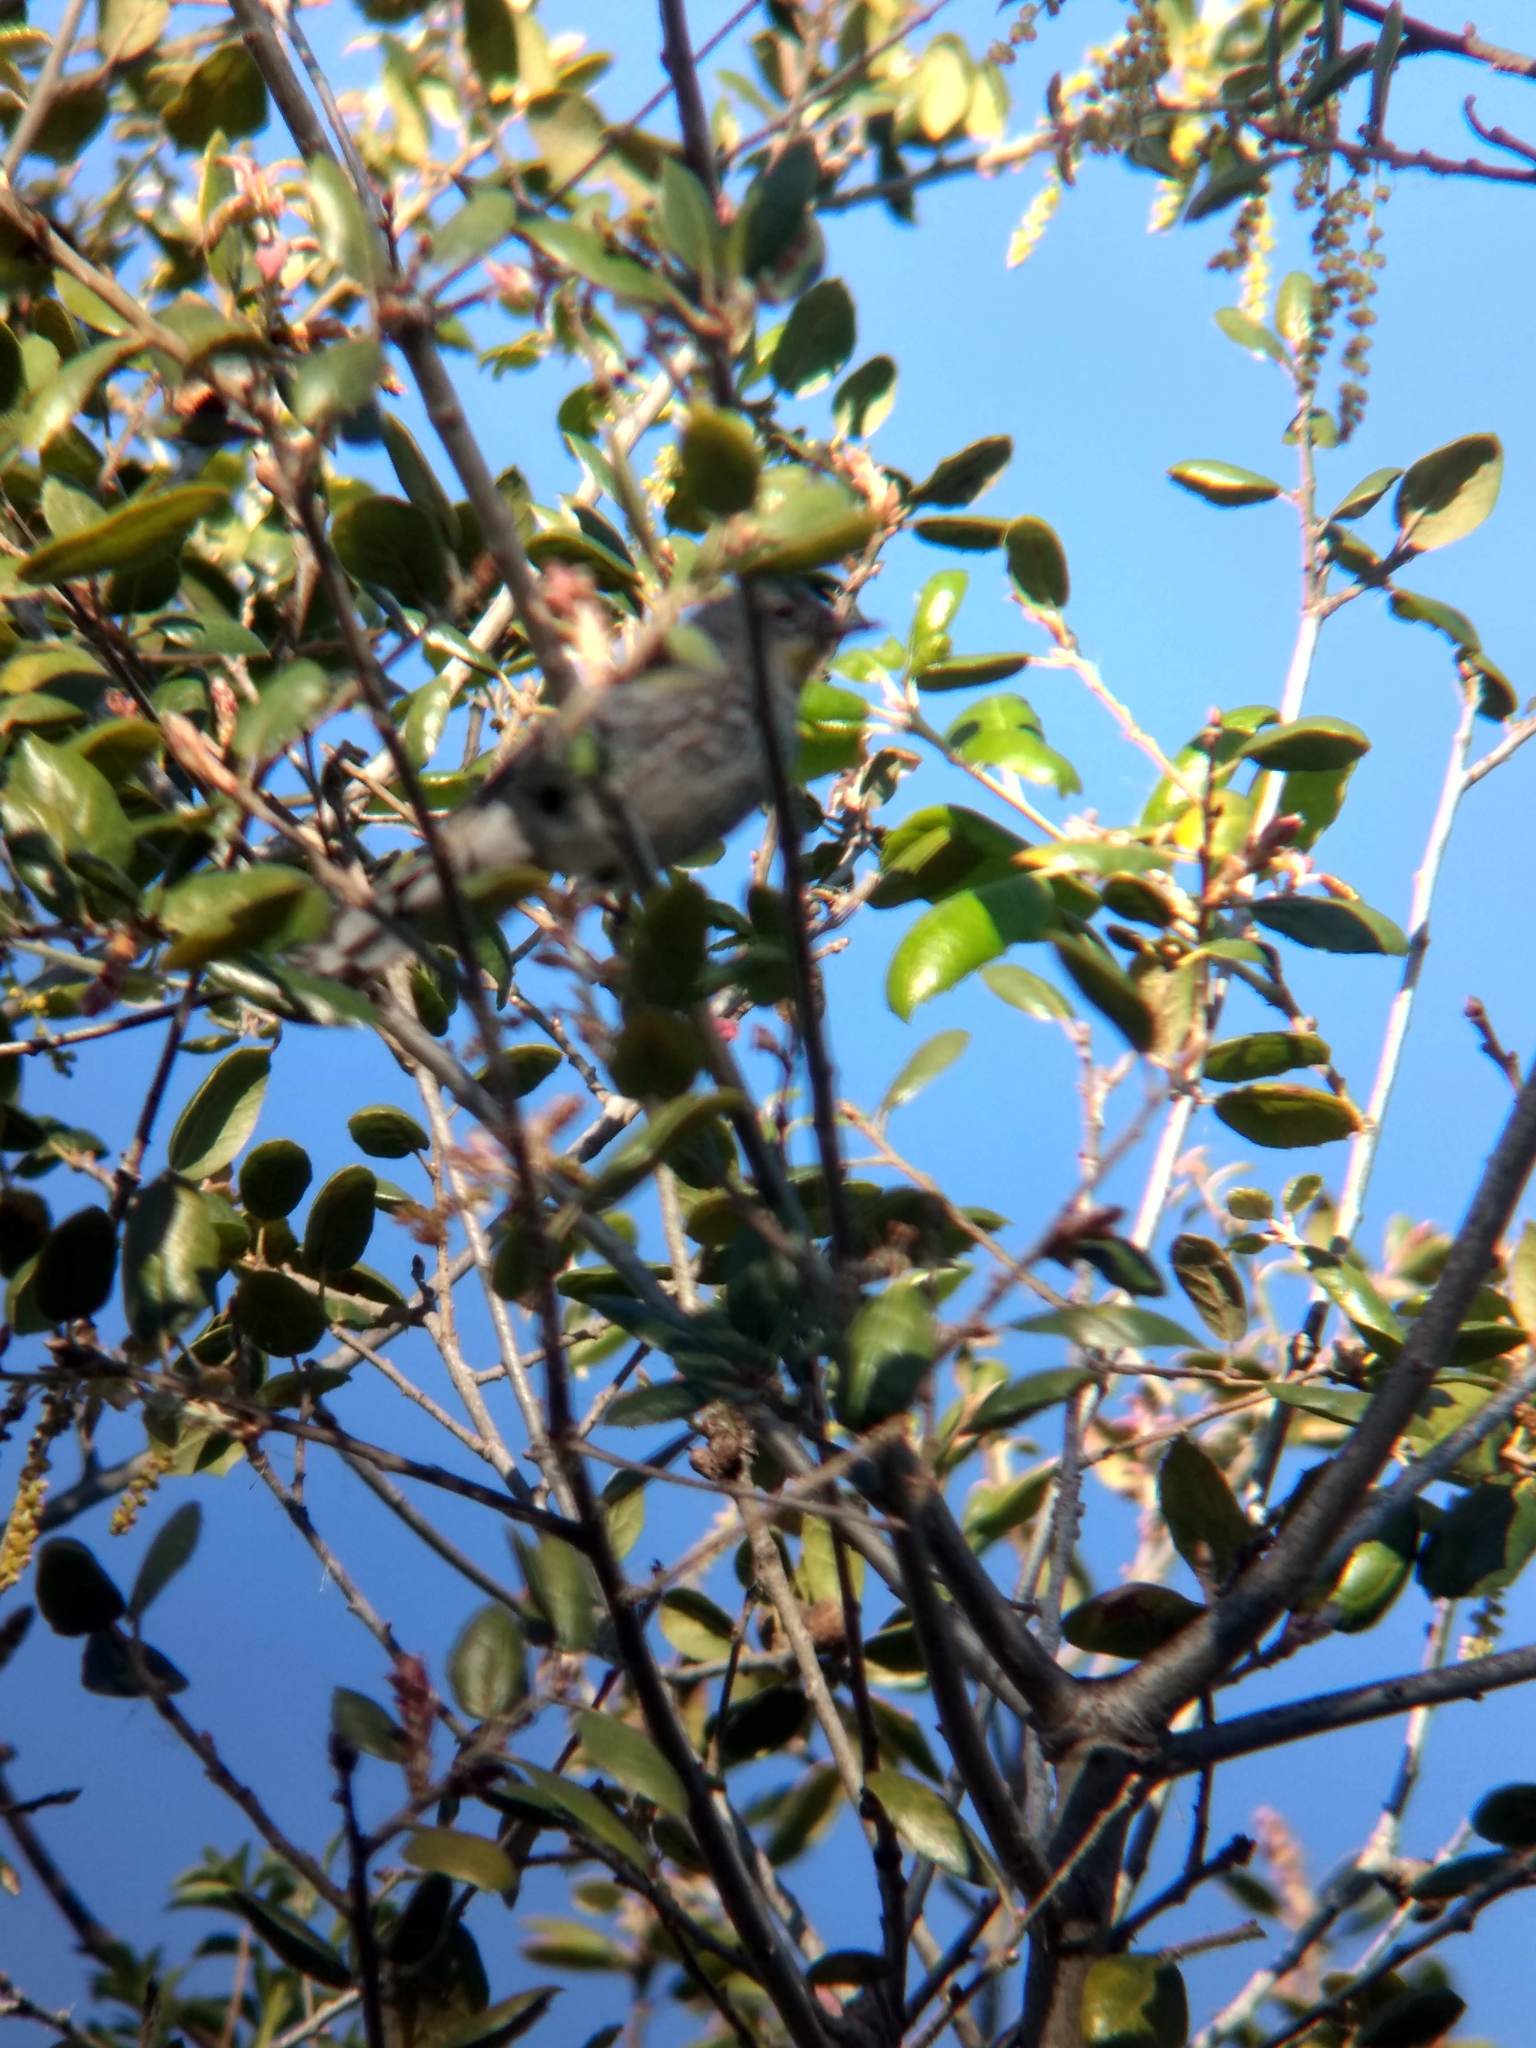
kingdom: Animalia
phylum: Chordata
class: Aves
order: Passeriformes
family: Parulidae
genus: Setophaga
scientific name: Setophaga coronata
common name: Myrtle warbler
